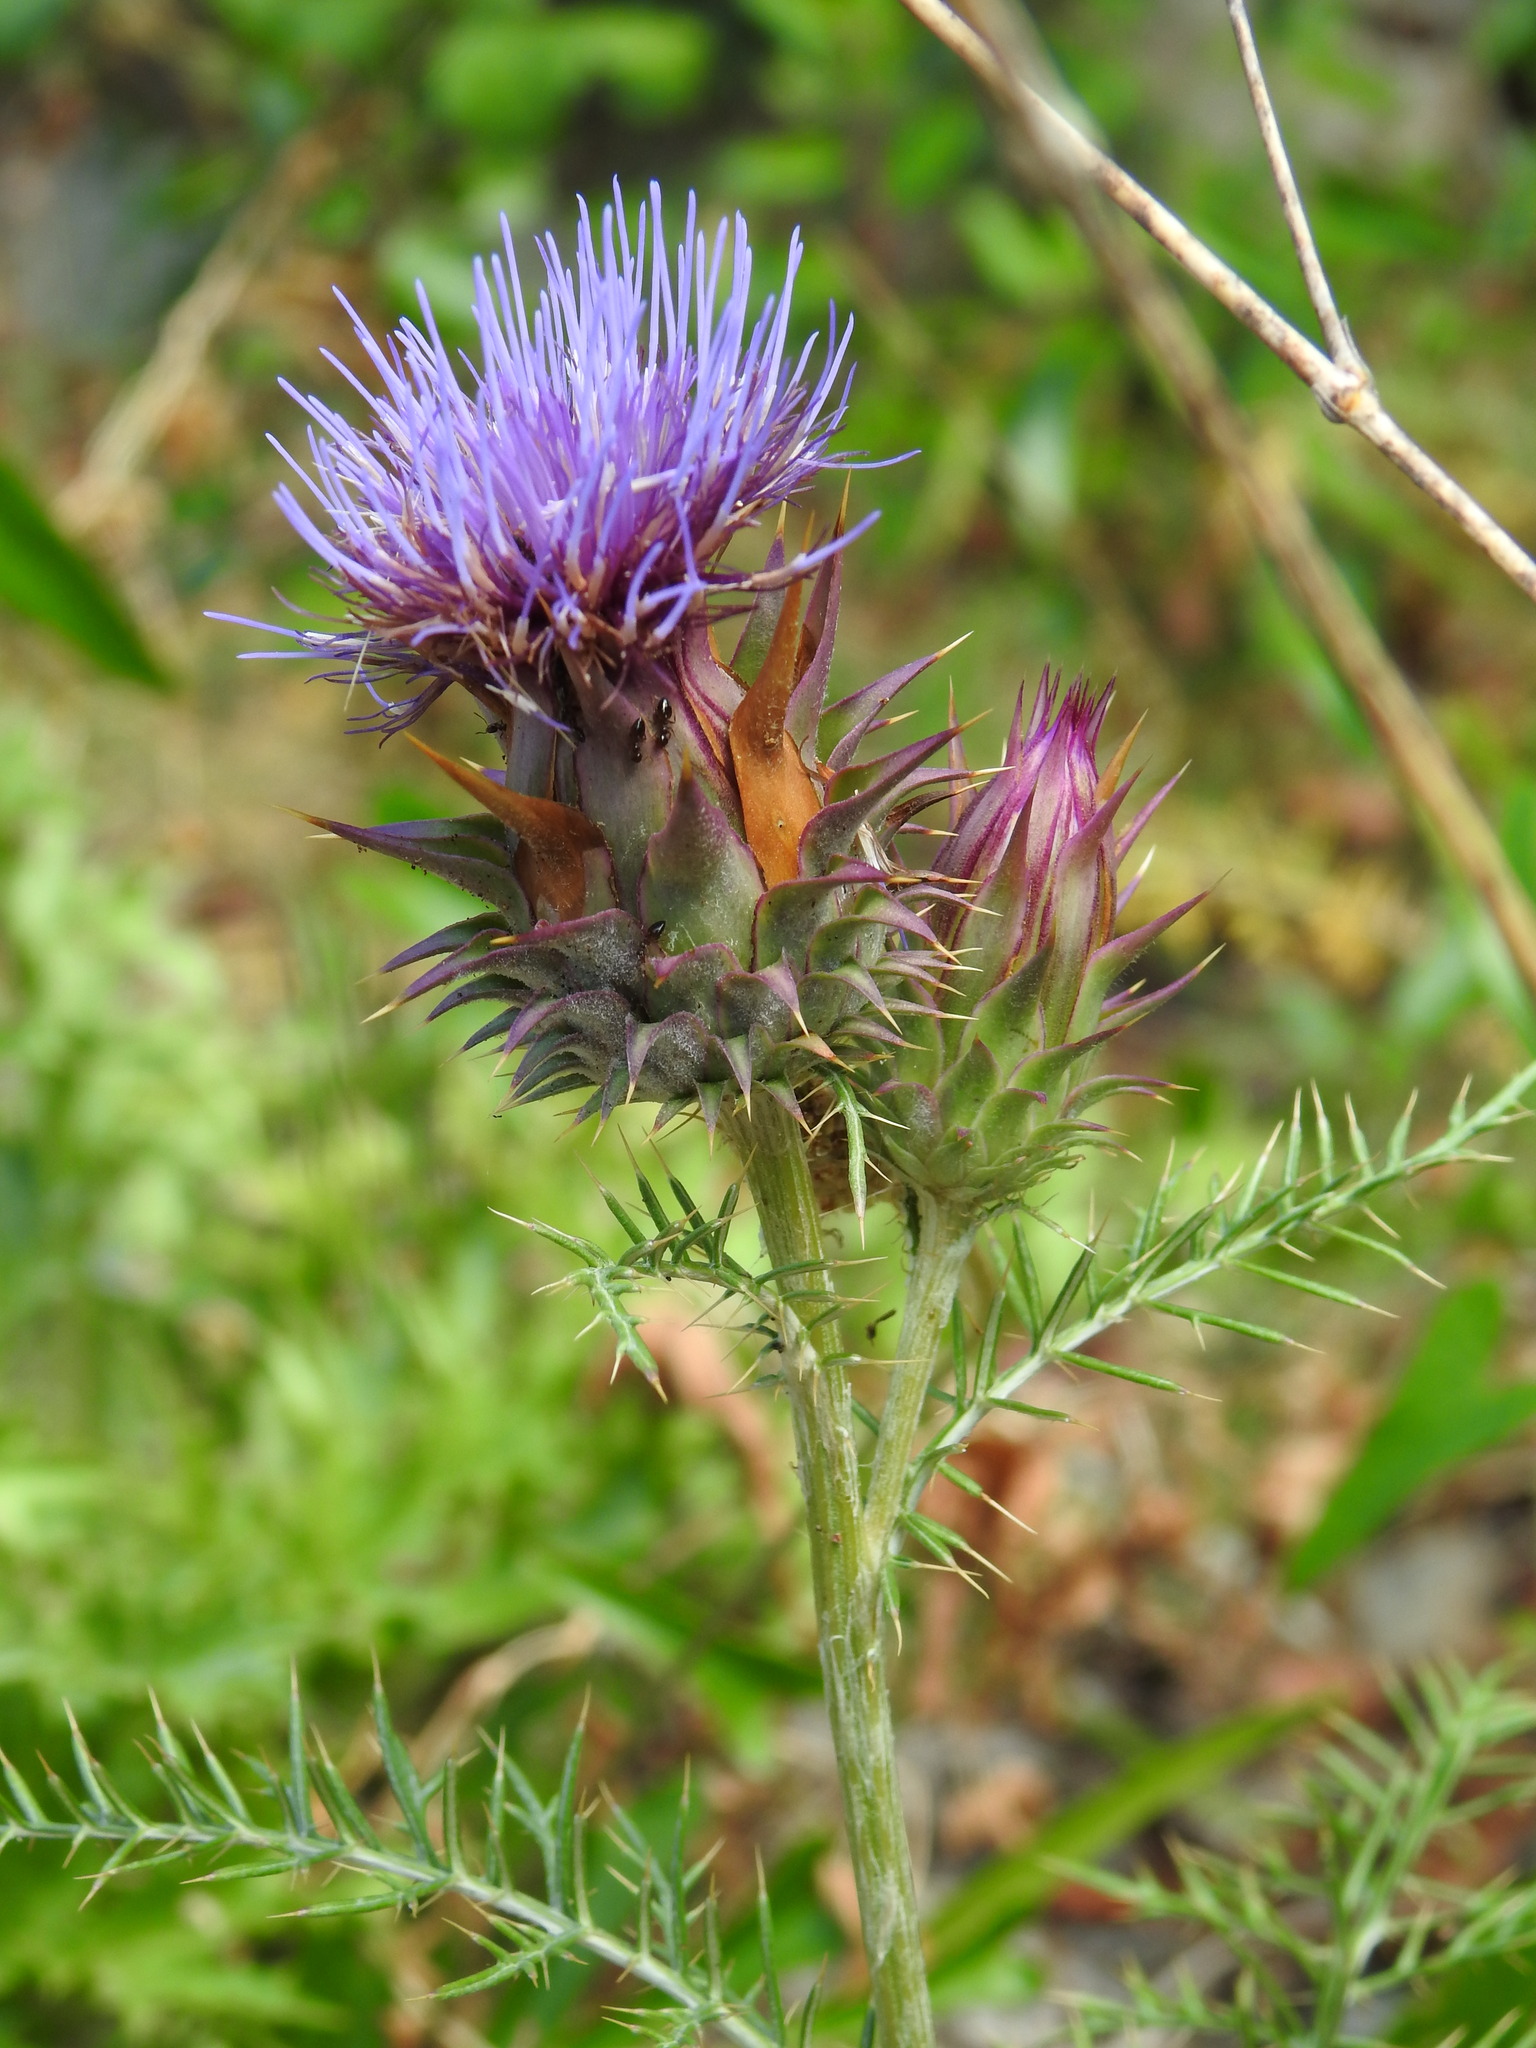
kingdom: Plantae
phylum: Tracheophyta
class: Magnoliopsida
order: Asterales
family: Asteraceae
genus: Cynara
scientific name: Cynara humilis
